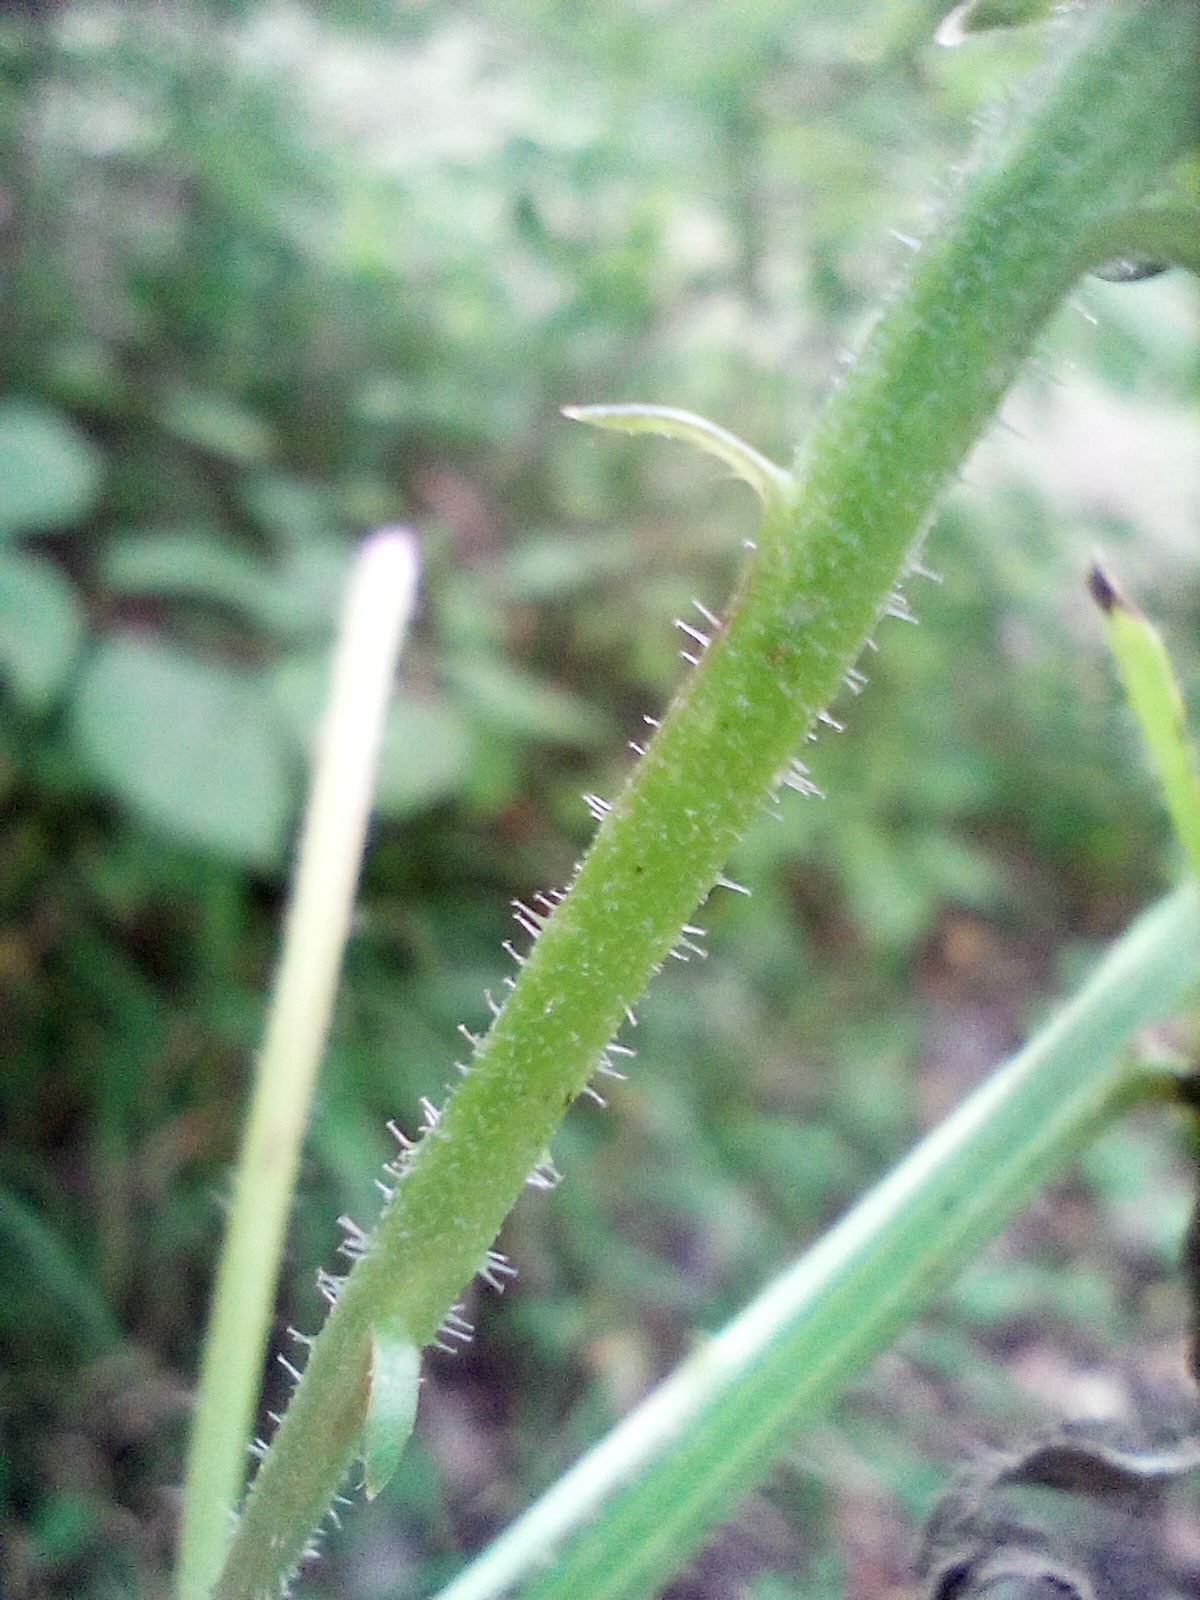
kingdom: Plantae
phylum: Tracheophyta
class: Magnoliopsida
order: Asterales
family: Asteraceae
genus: Picris
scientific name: Picris hieracioides
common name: Hawkweed oxtongue
